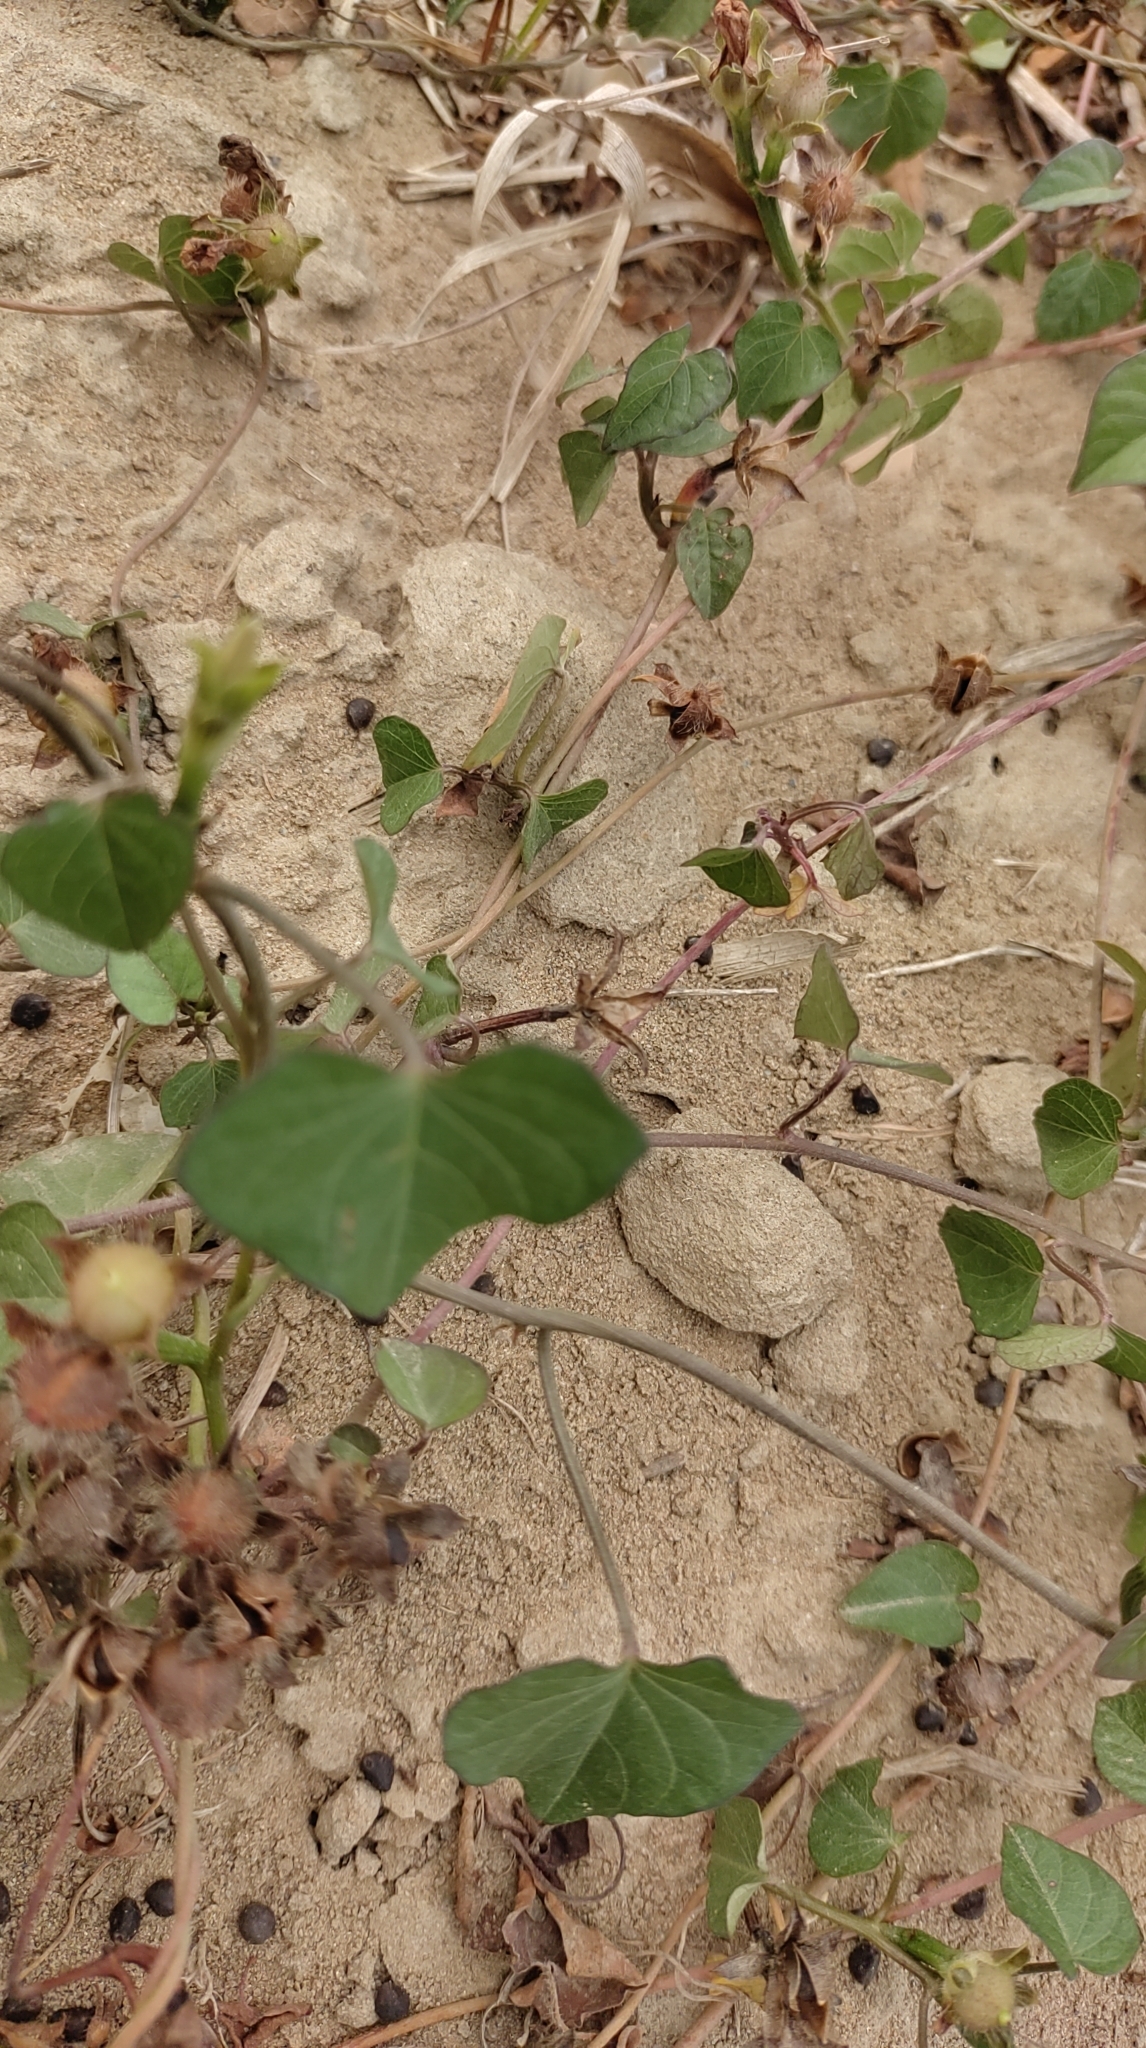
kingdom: Plantae
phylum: Tracheophyta
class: Magnoliopsida
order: Solanales
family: Convolvulaceae
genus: Ipomoea
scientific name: Ipomoea triloba
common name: Little-bell
